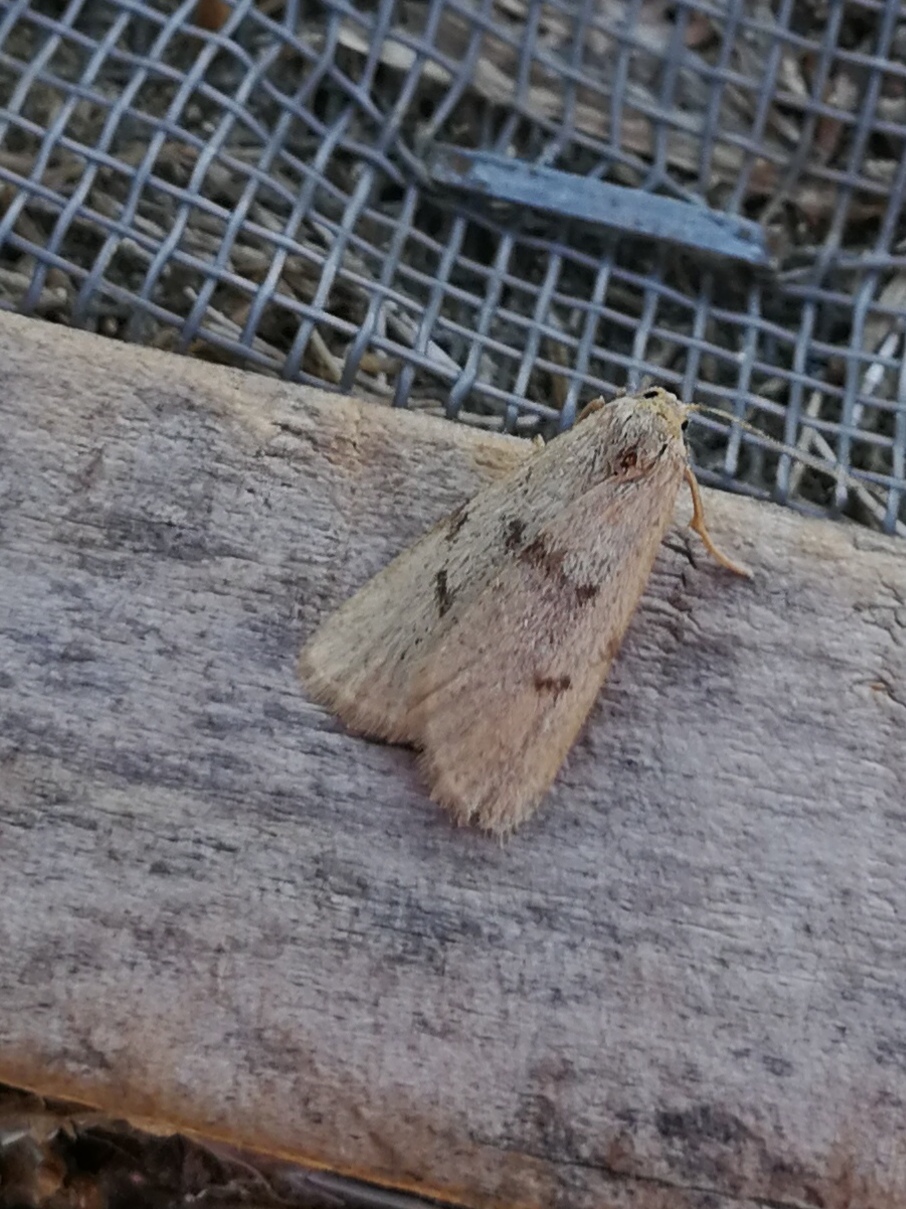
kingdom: Animalia
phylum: Arthropoda
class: Insecta
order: Lepidoptera
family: Erebidae
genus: Apaidia
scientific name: Apaidia mesogona
